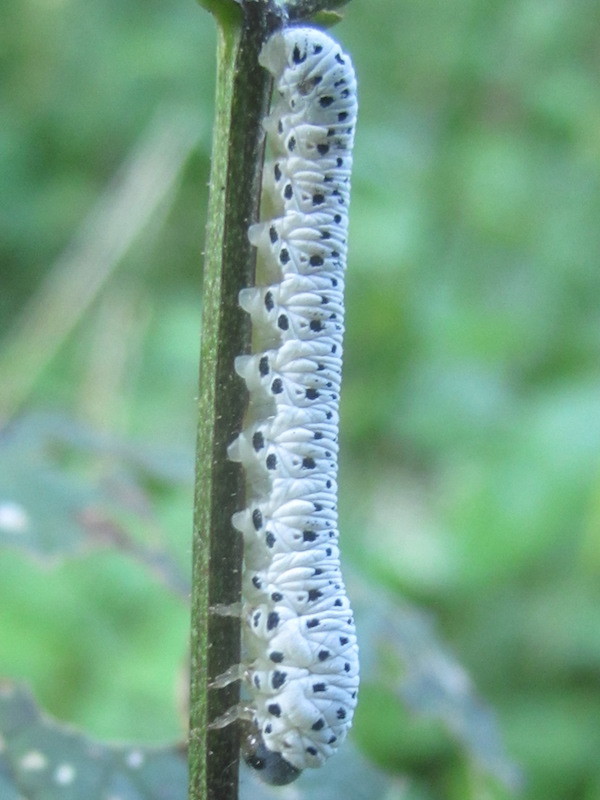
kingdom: Animalia
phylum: Arthropoda
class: Insecta
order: Hymenoptera
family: Tenthredinidae
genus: Tenthredo
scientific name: Tenthredo scrophulariae
